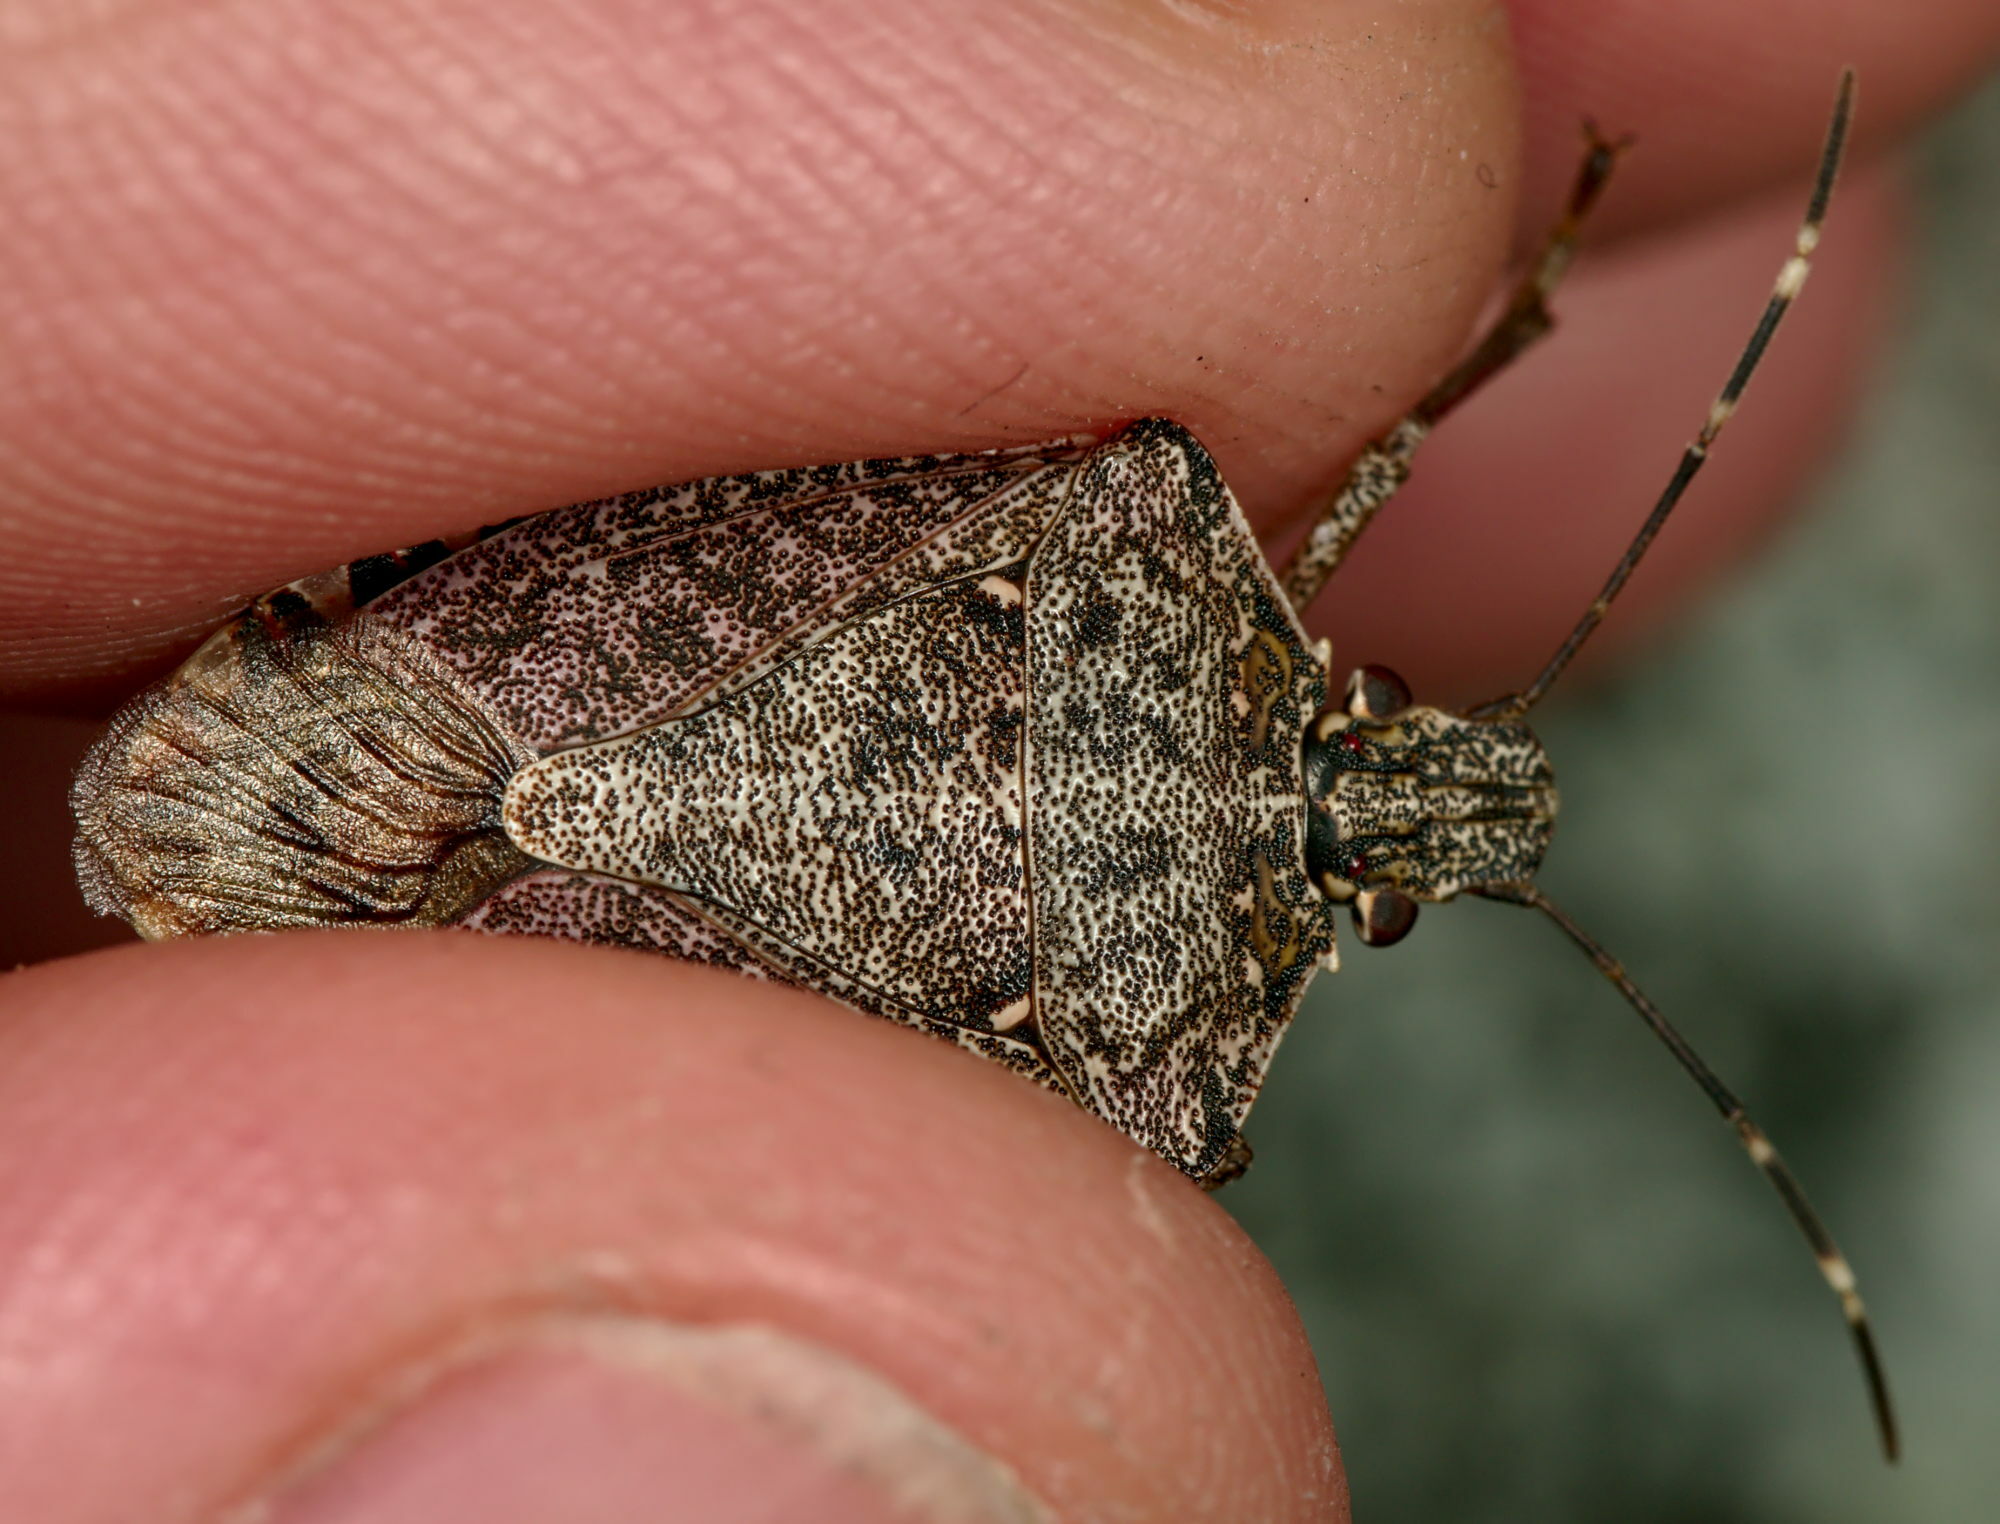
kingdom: Animalia
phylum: Arthropoda
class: Insecta
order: Hemiptera
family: Pentatomidae
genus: Halyomorpha
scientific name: Halyomorpha halys
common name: Brown marmorated stink bug
